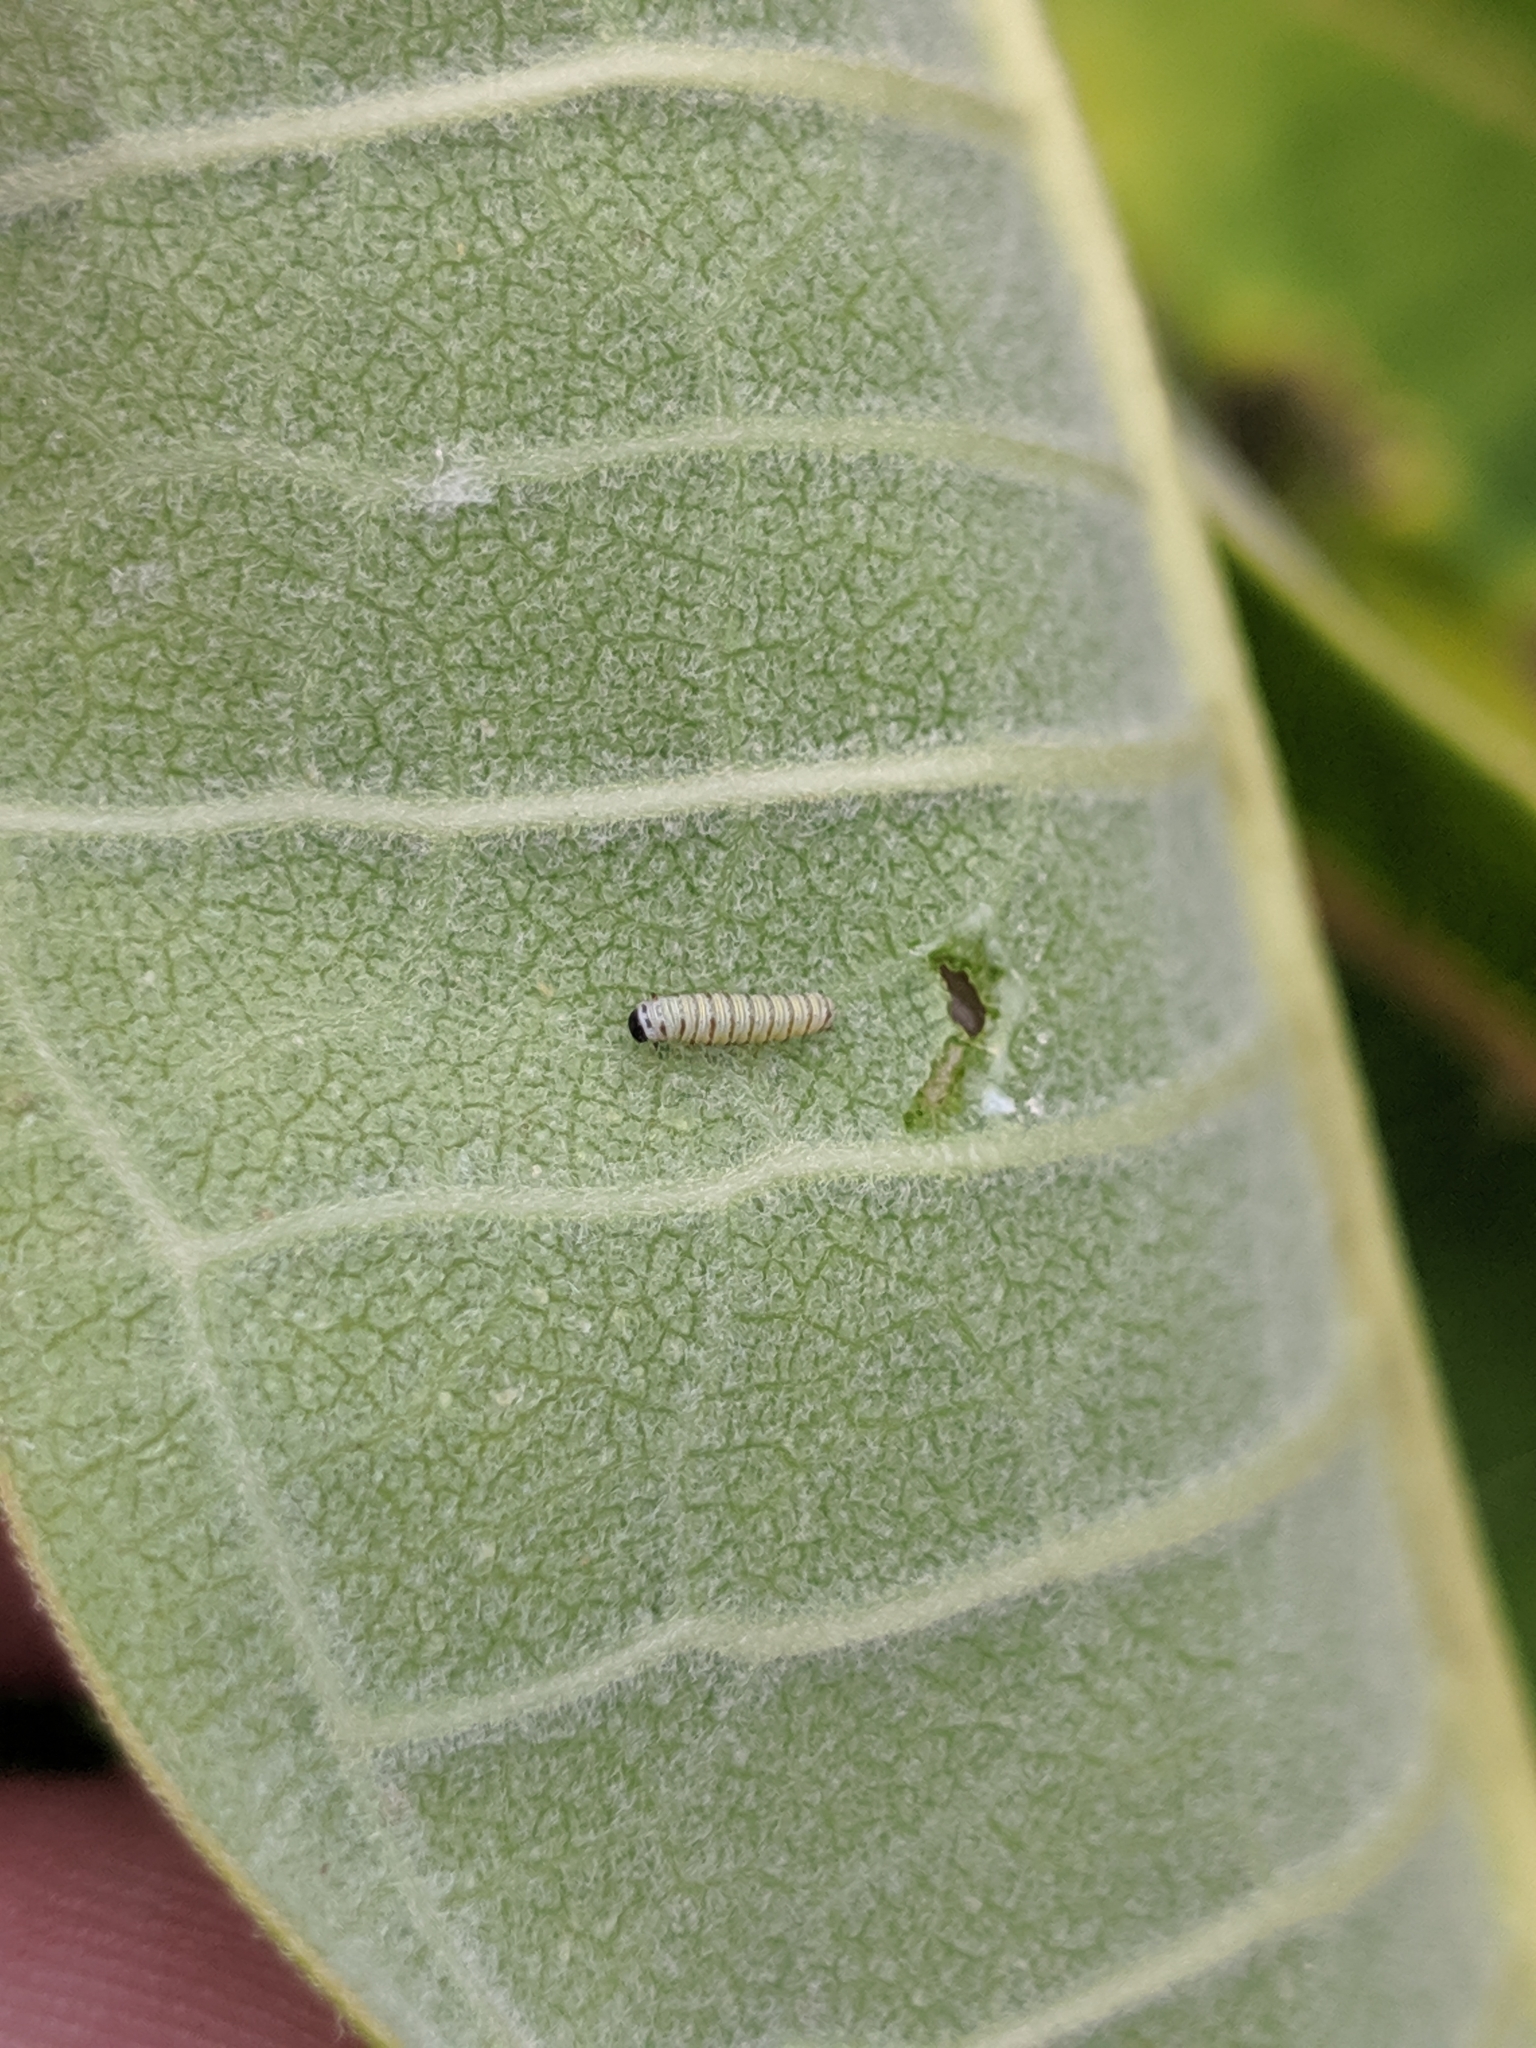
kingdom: Animalia
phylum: Arthropoda
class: Insecta
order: Lepidoptera
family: Nymphalidae
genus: Danaus
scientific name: Danaus plexippus
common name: Monarch
